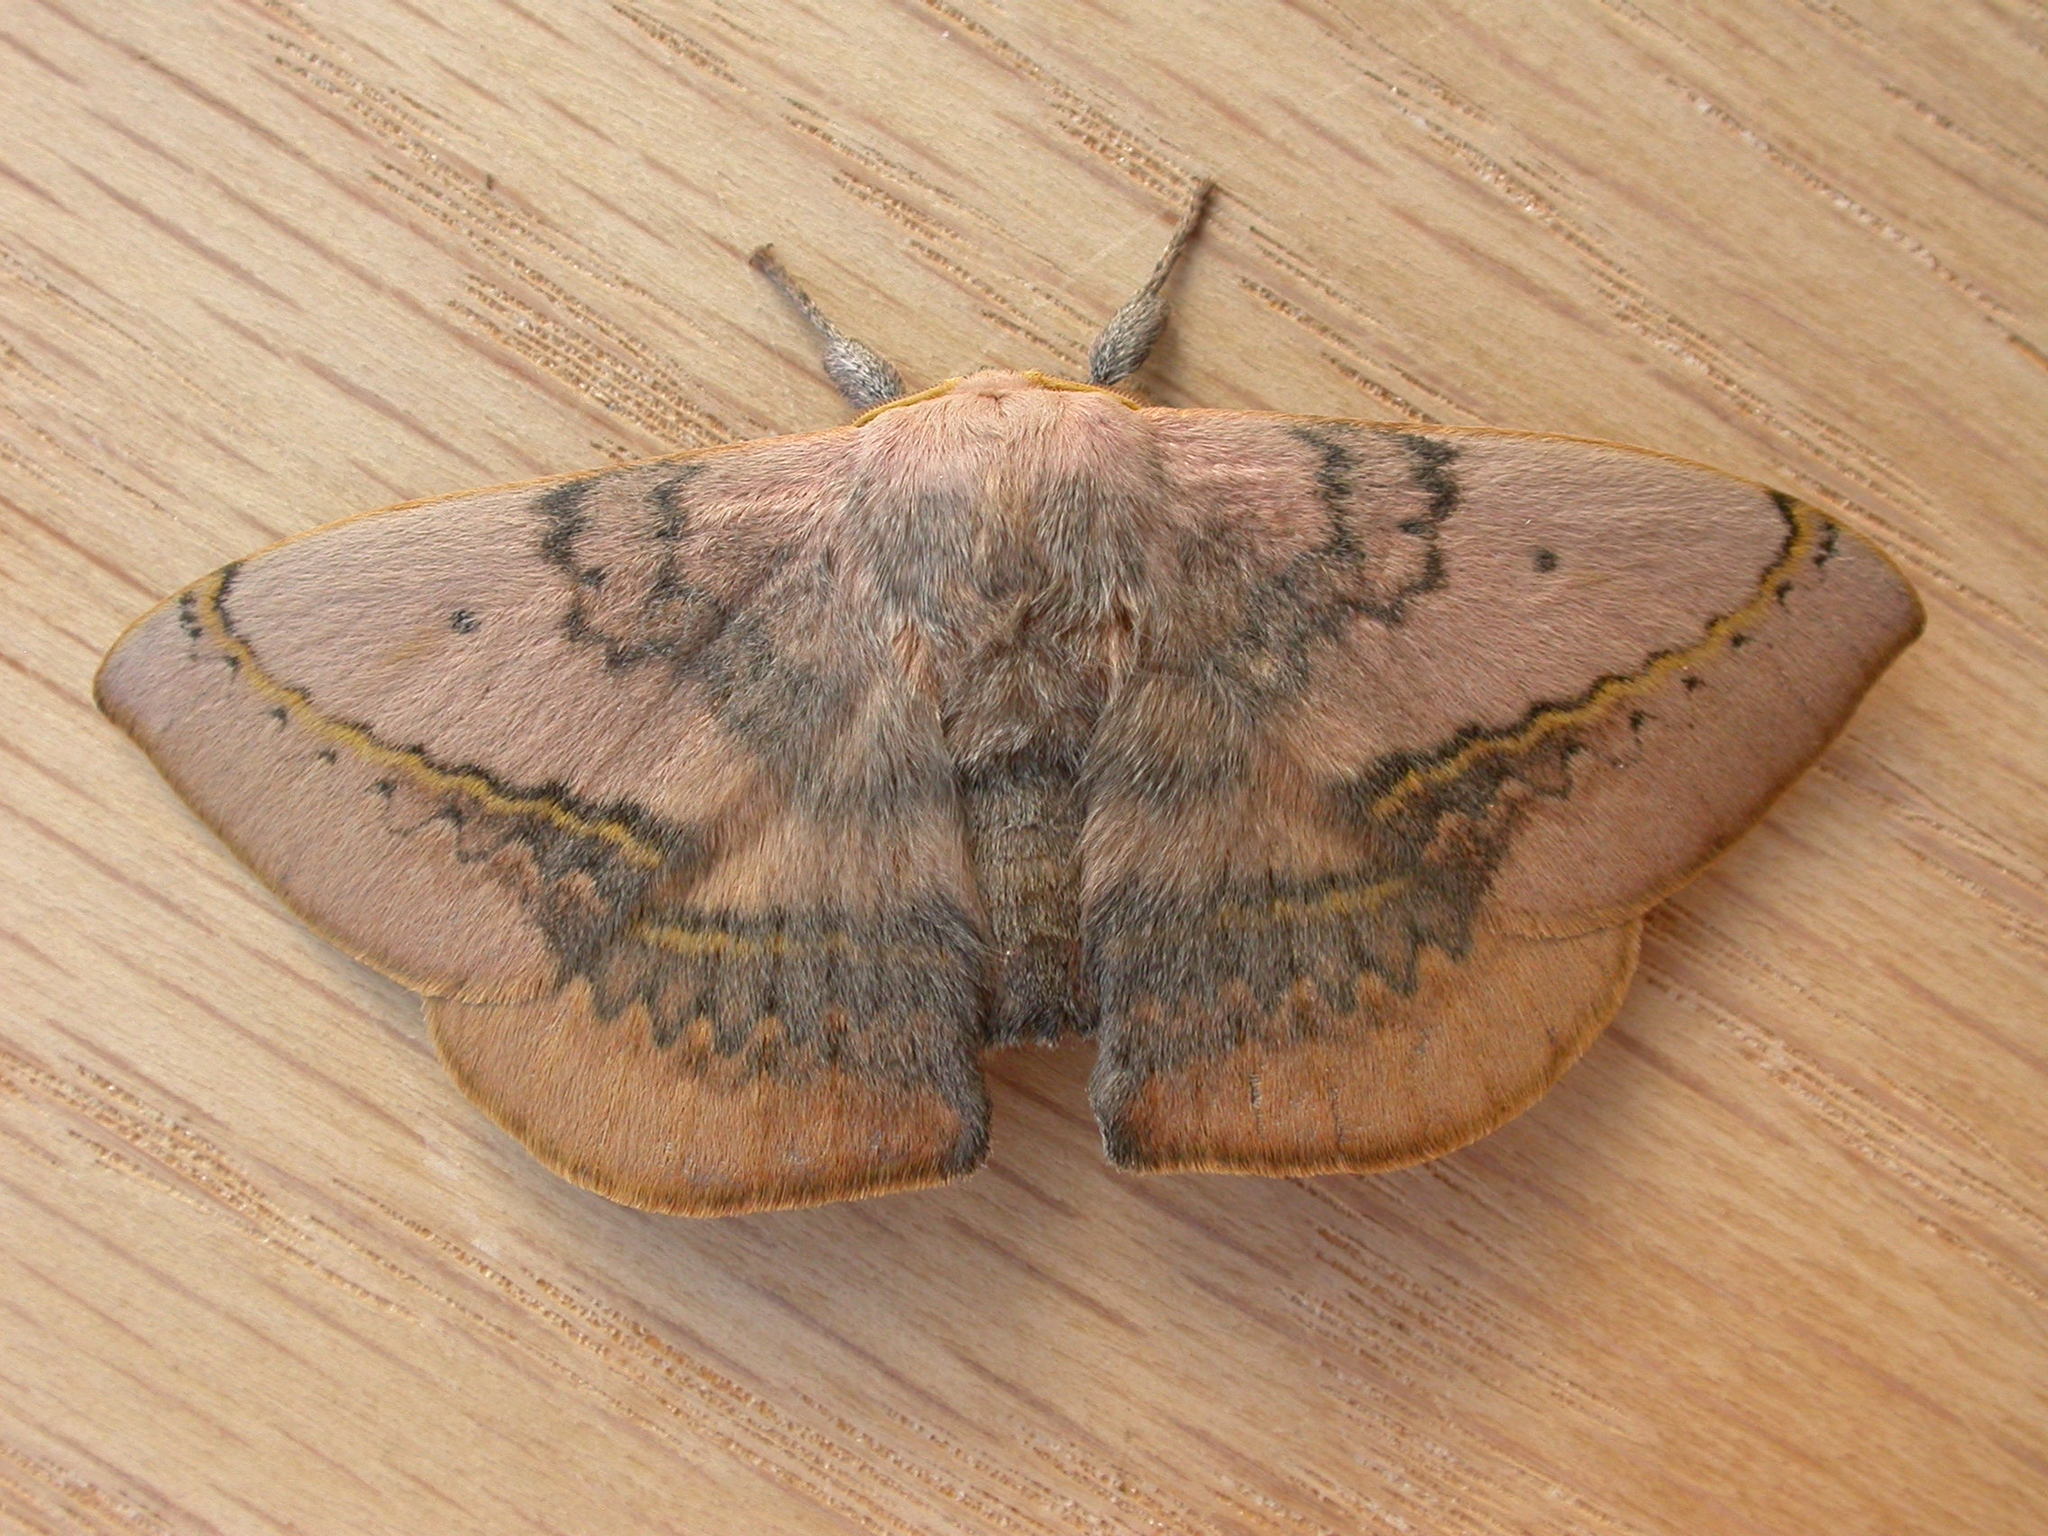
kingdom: Animalia
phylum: Arthropoda
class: Insecta
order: Lepidoptera
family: Anthelidae
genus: Anthela
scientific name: Anthela varia
